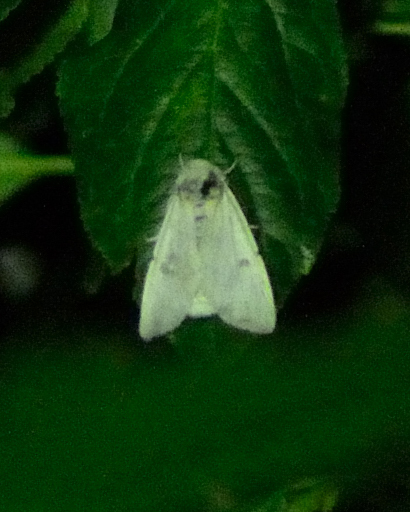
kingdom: Animalia
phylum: Arthropoda
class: Insecta
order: Lepidoptera
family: Noctuidae
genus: Acronicta
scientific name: Acronicta leporina
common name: Miller
